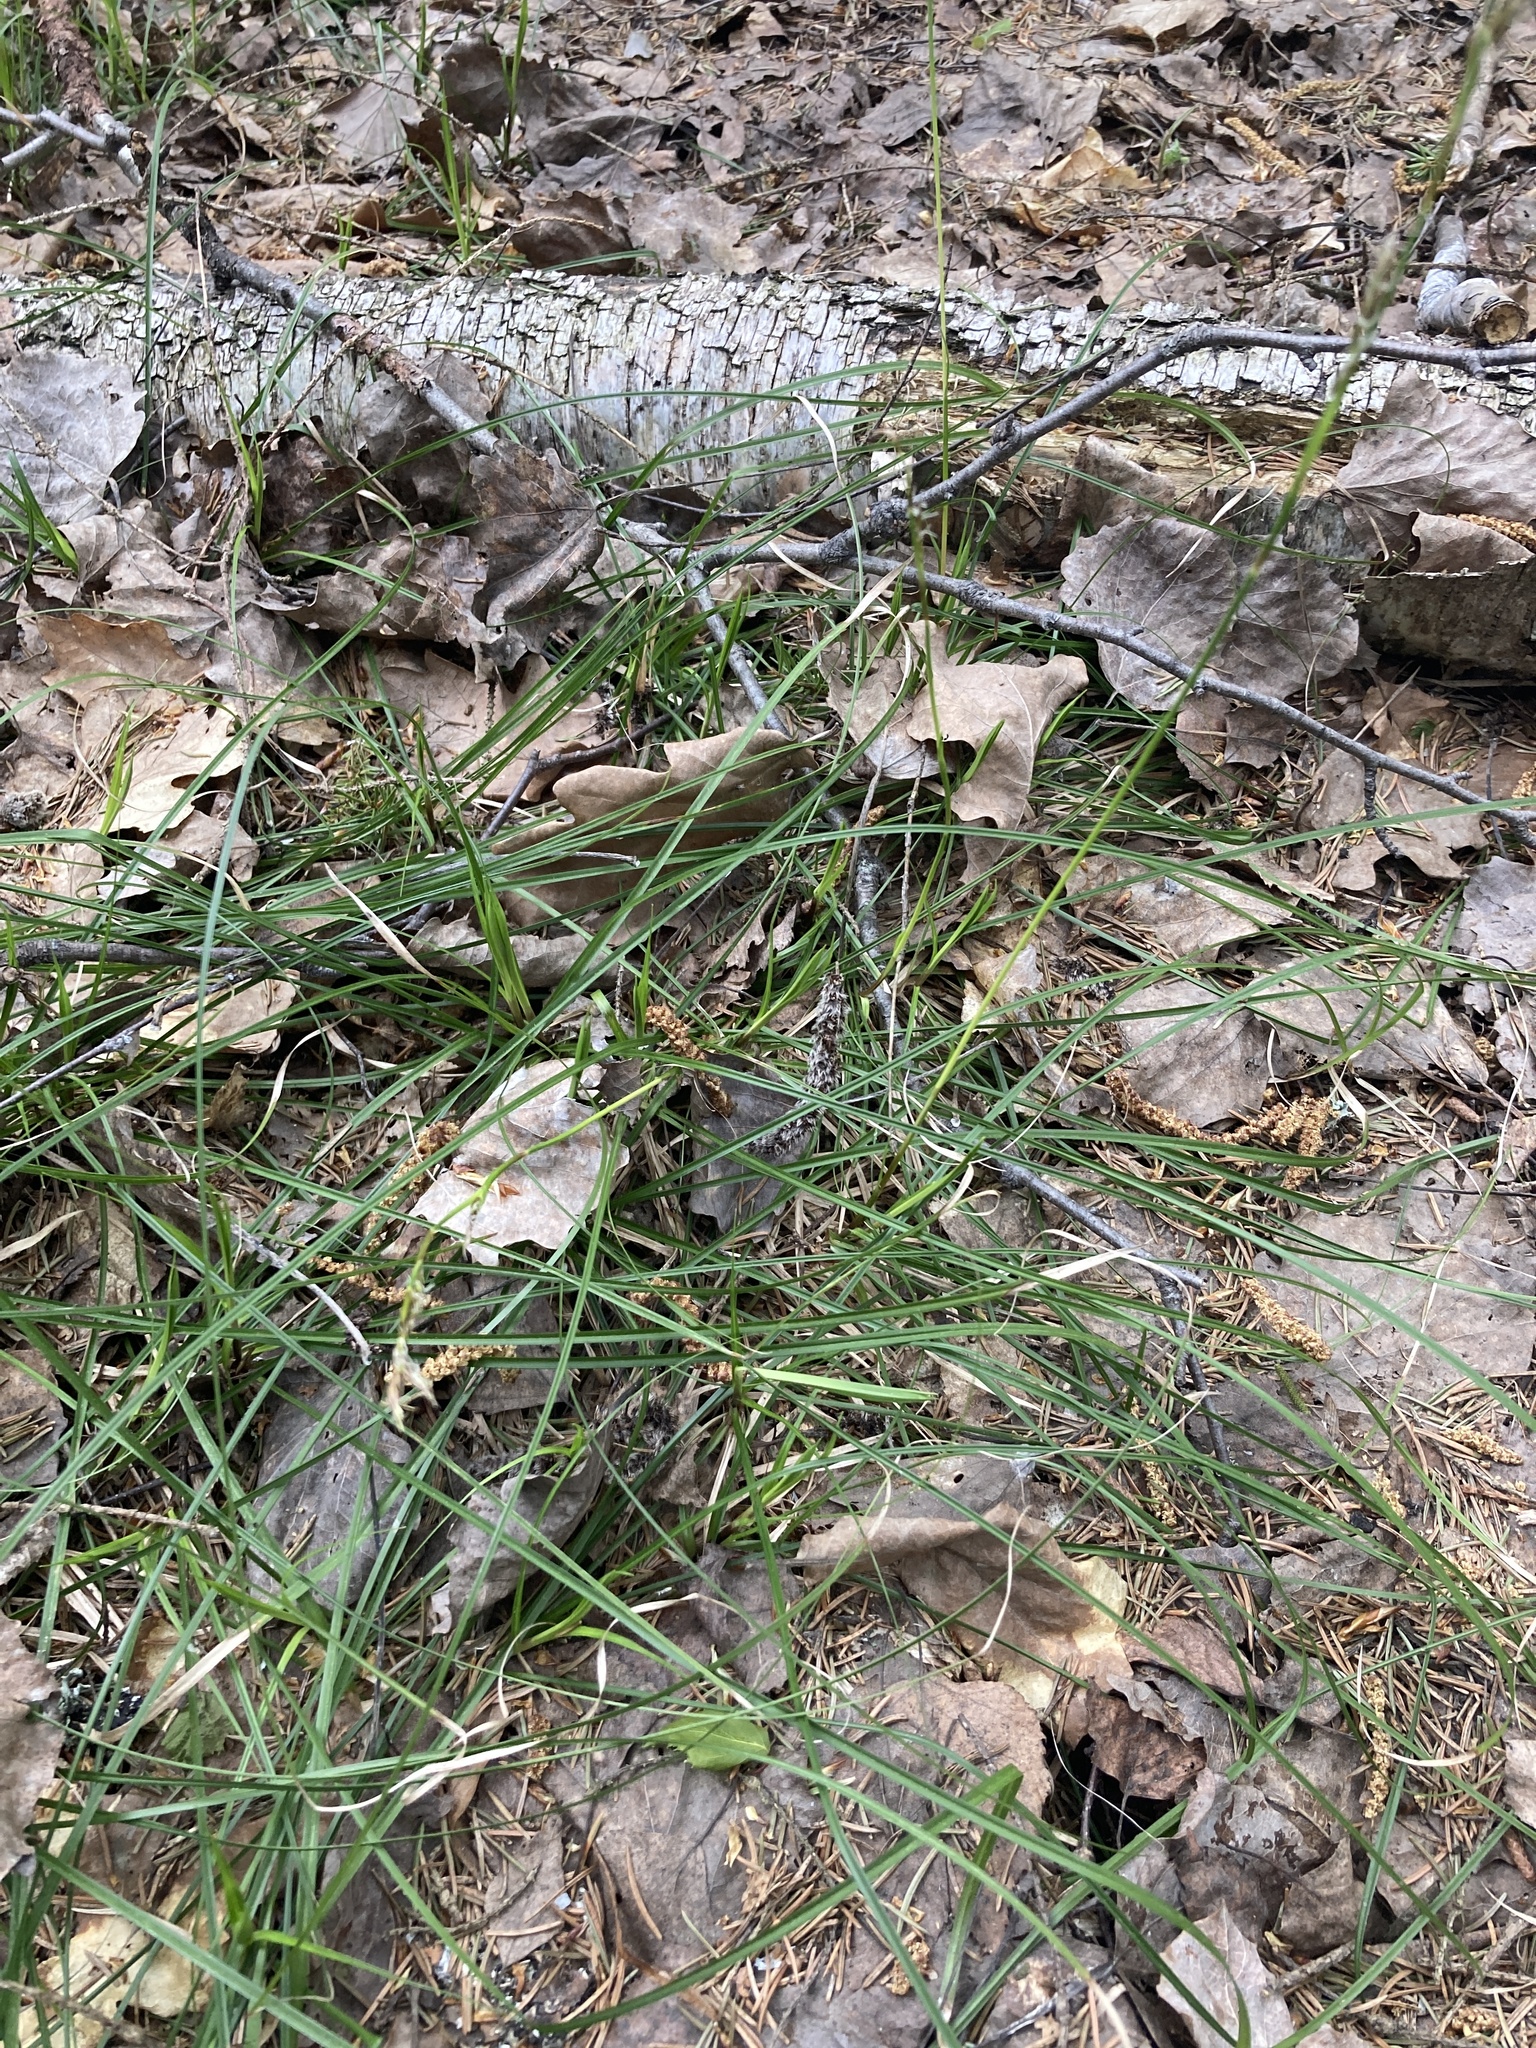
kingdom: Plantae
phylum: Tracheophyta
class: Liliopsida
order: Poales
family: Cyperaceae
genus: Carex
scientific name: Carex digitata
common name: Fingered sedge
